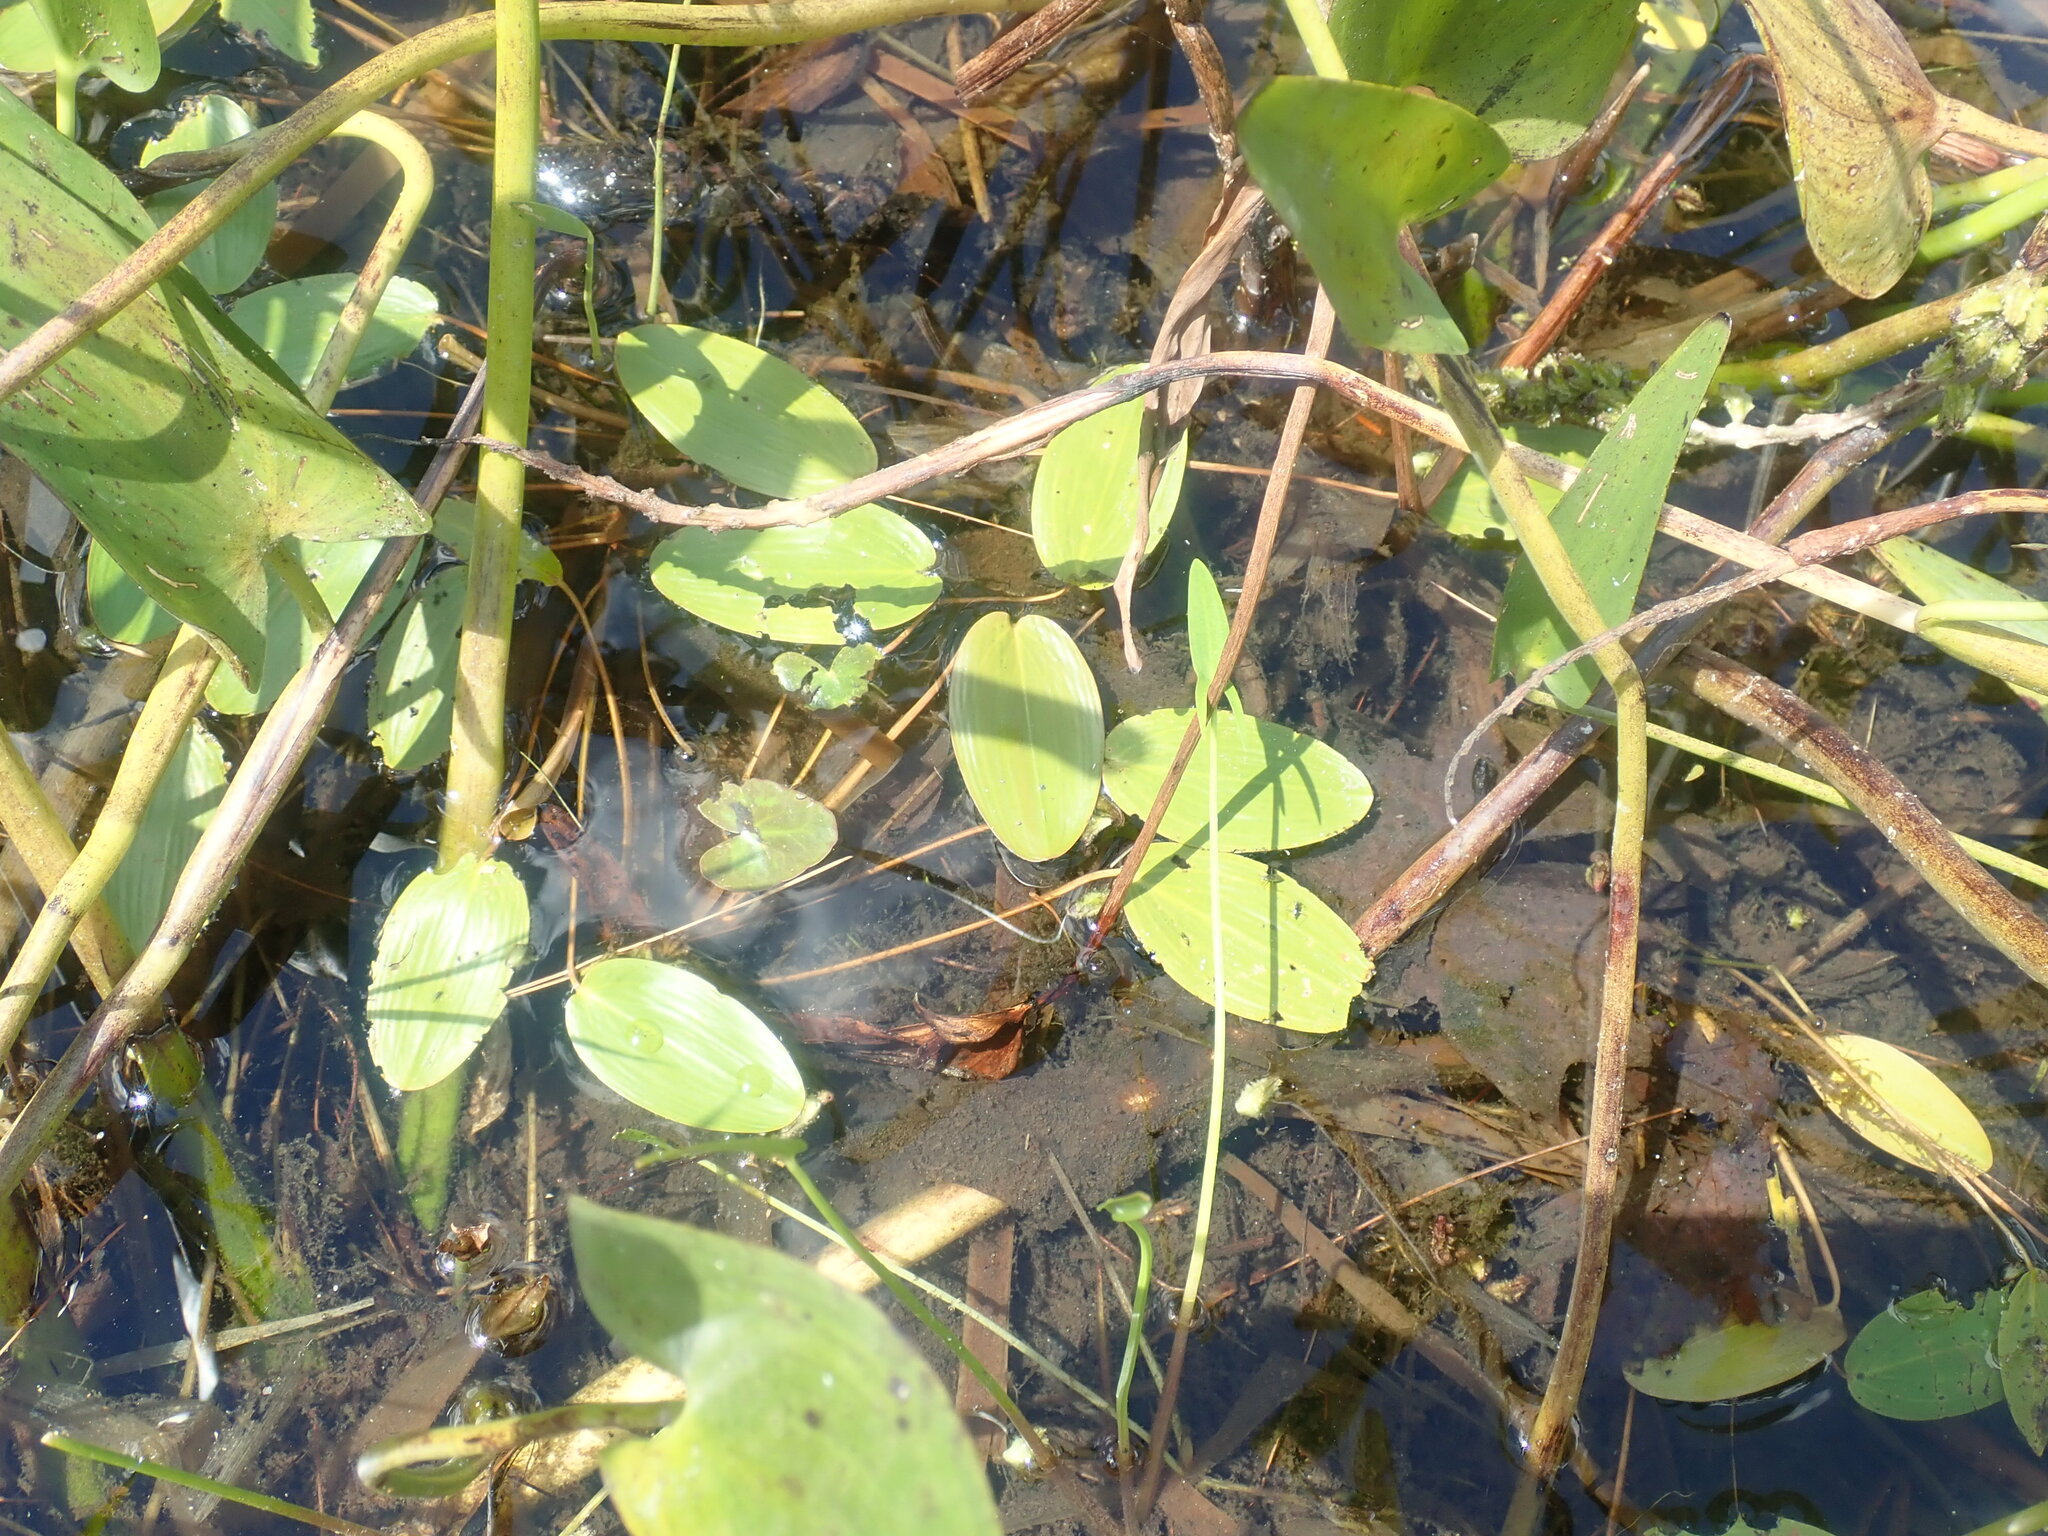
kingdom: Plantae
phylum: Tracheophyta
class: Liliopsida
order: Alismatales
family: Potamogetonaceae
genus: Potamogeton
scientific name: Potamogeton natans
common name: Broad-leaved pondweed
